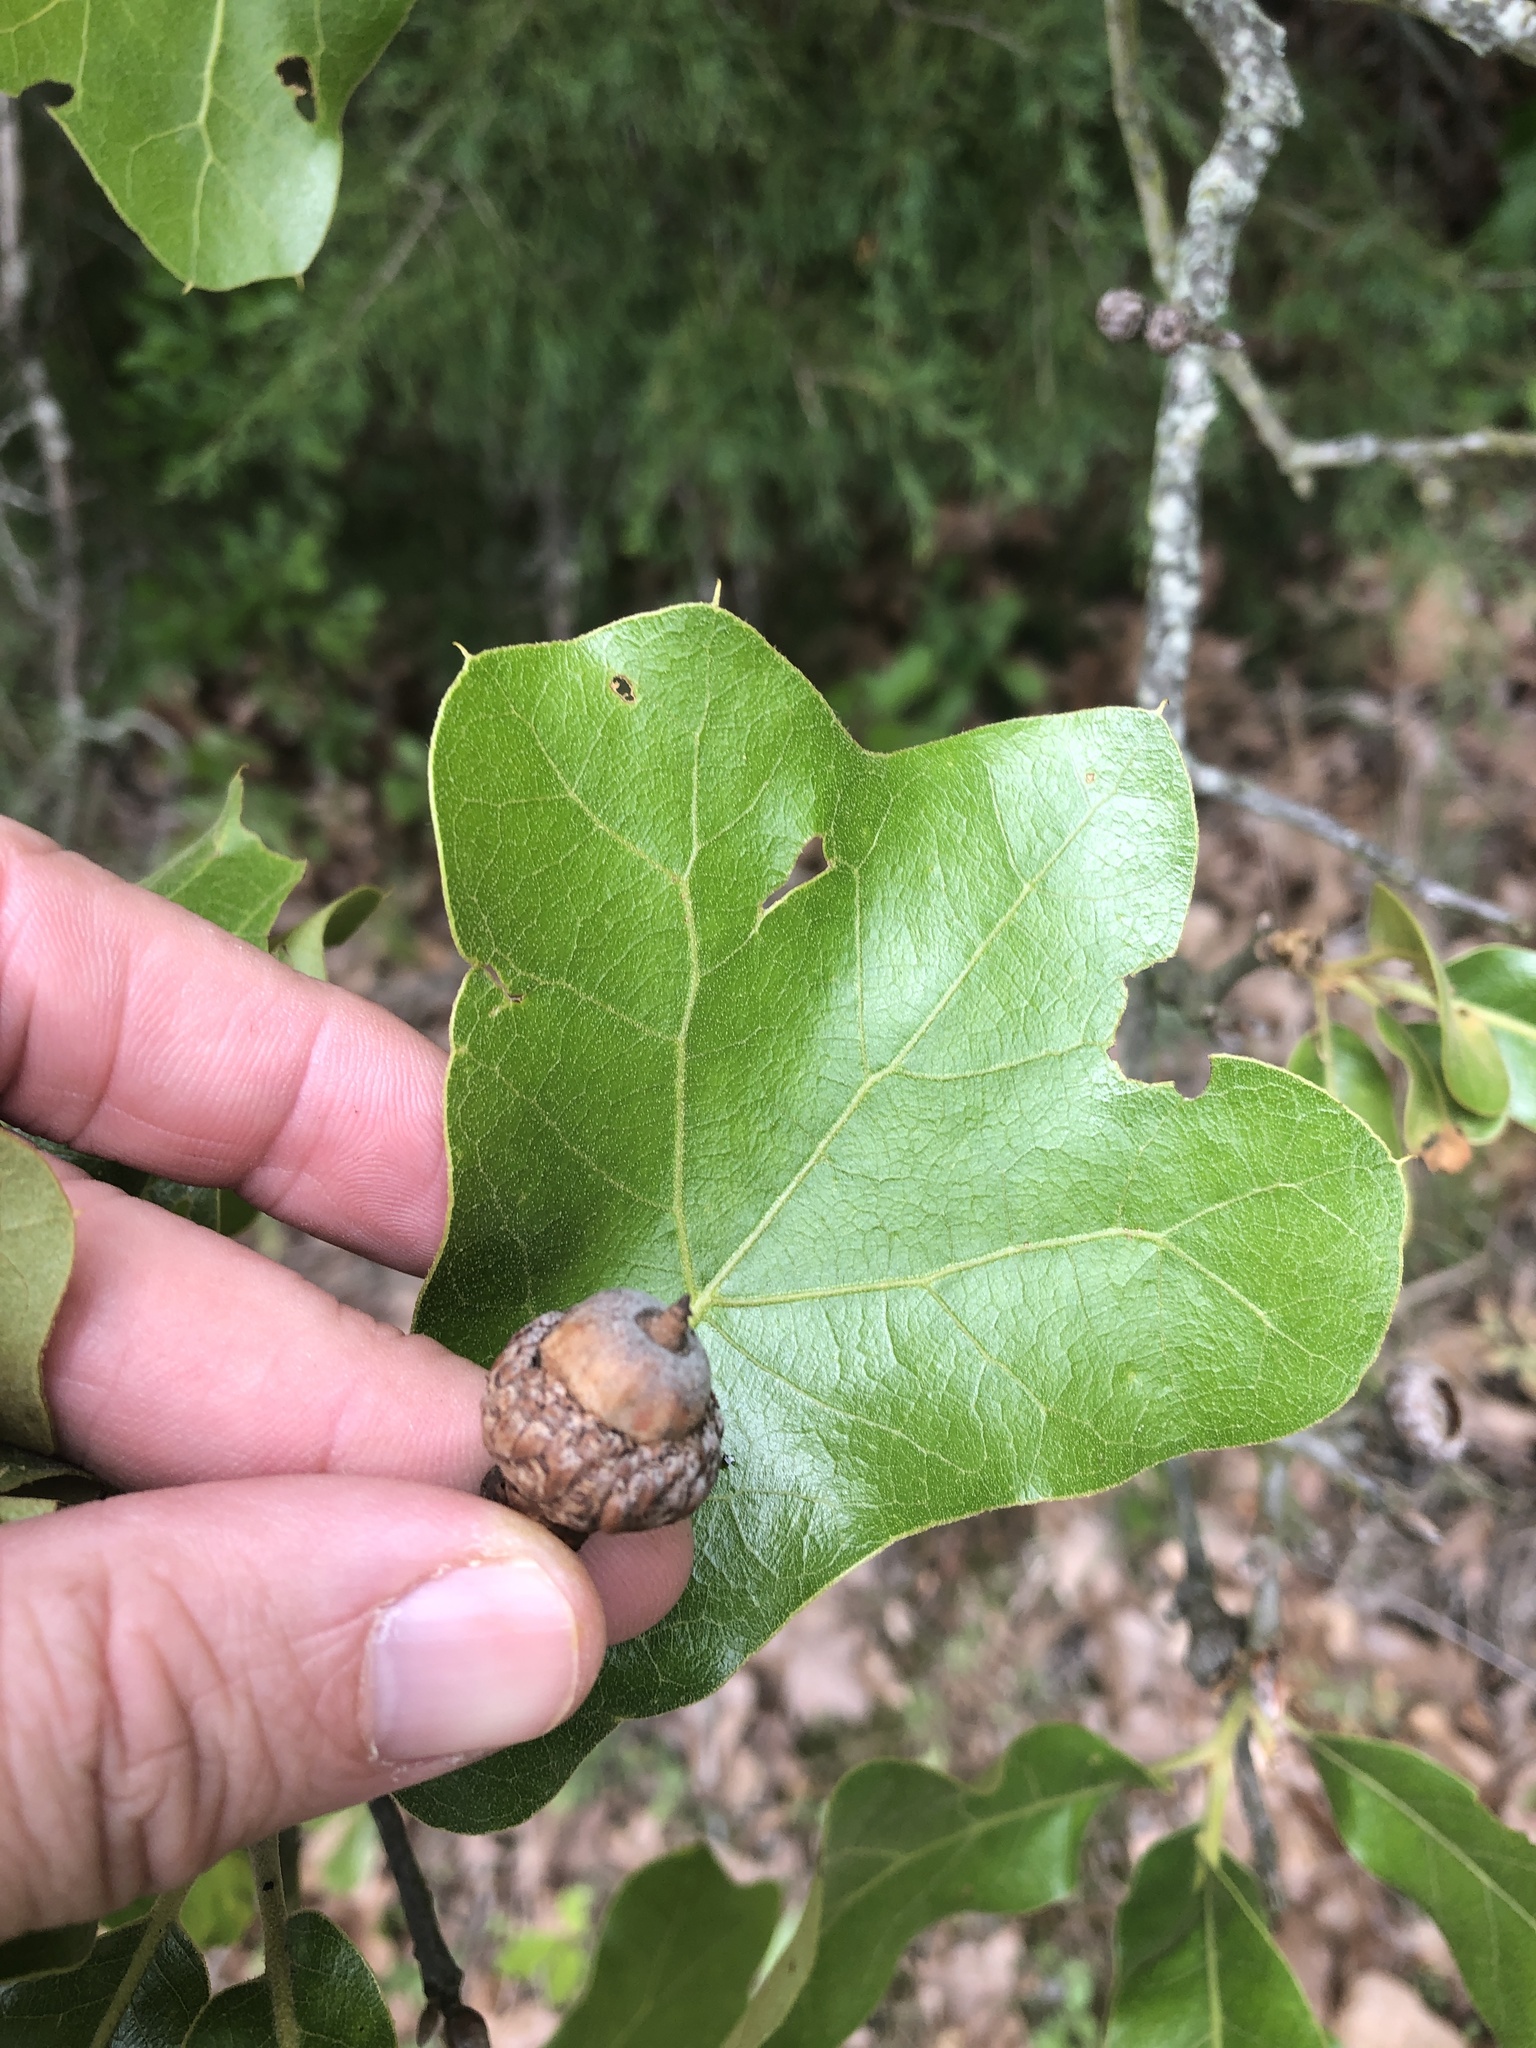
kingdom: Plantae
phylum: Tracheophyta
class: Magnoliopsida
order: Fagales
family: Fagaceae
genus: Quercus
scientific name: Quercus marilandica
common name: Blackjack oak
